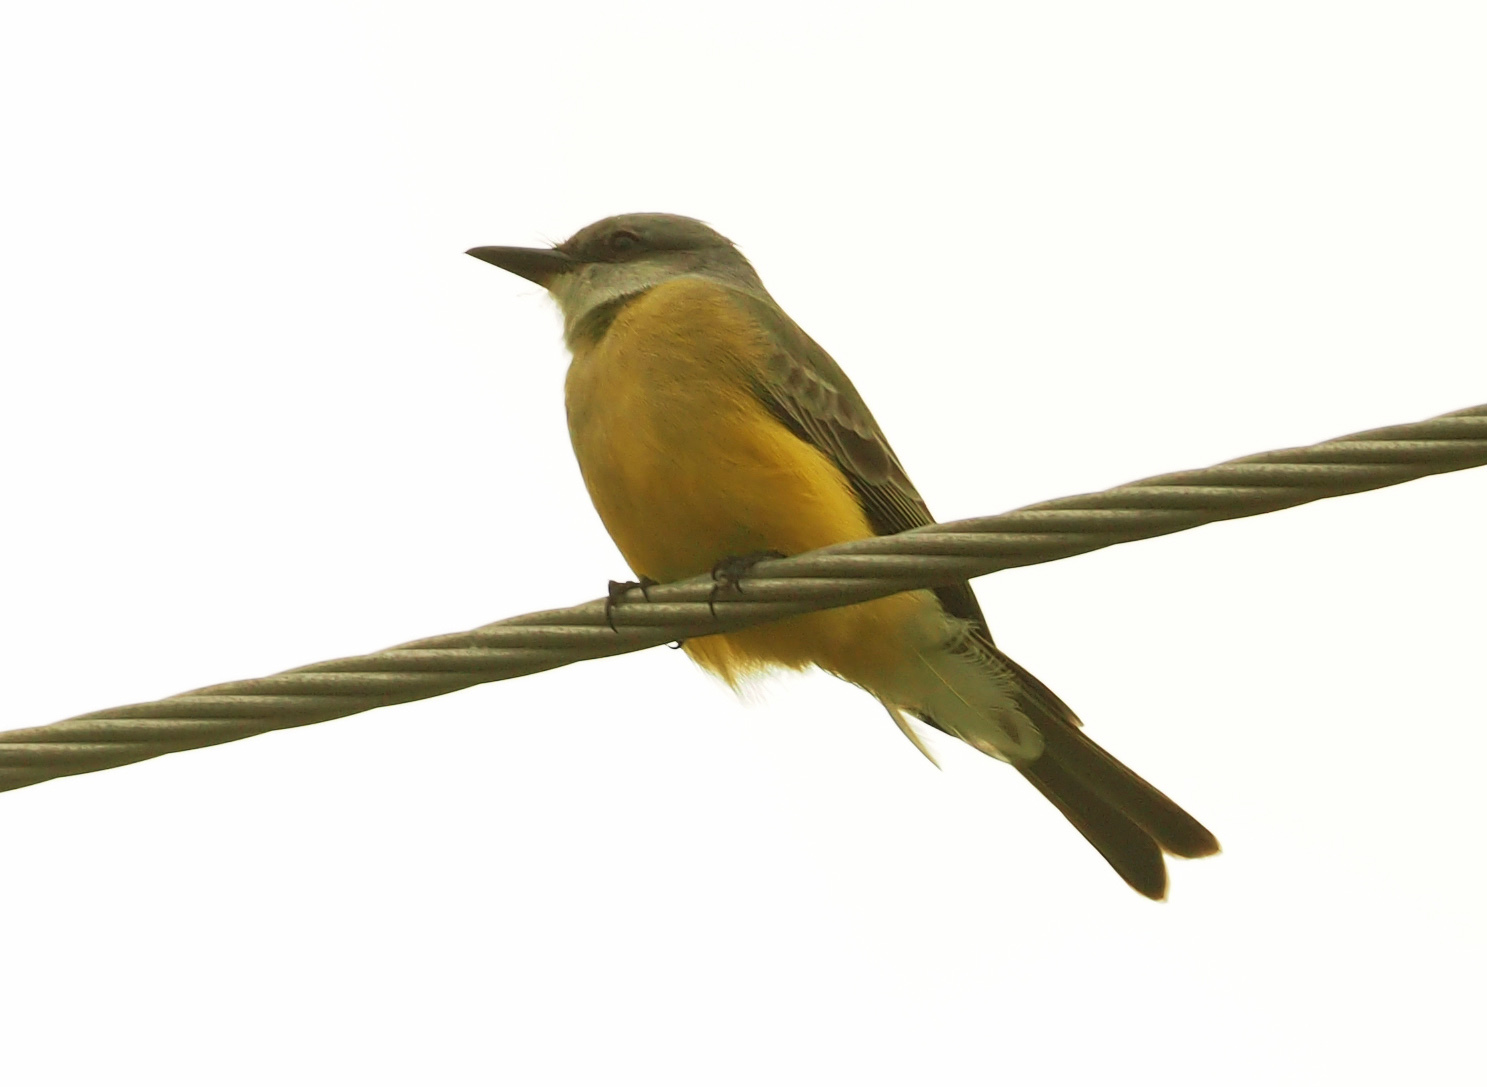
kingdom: Animalia
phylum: Chordata
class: Aves
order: Passeriformes
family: Tyrannidae
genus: Tyrannus
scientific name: Tyrannus melancholicus
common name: Tropical kingbird
